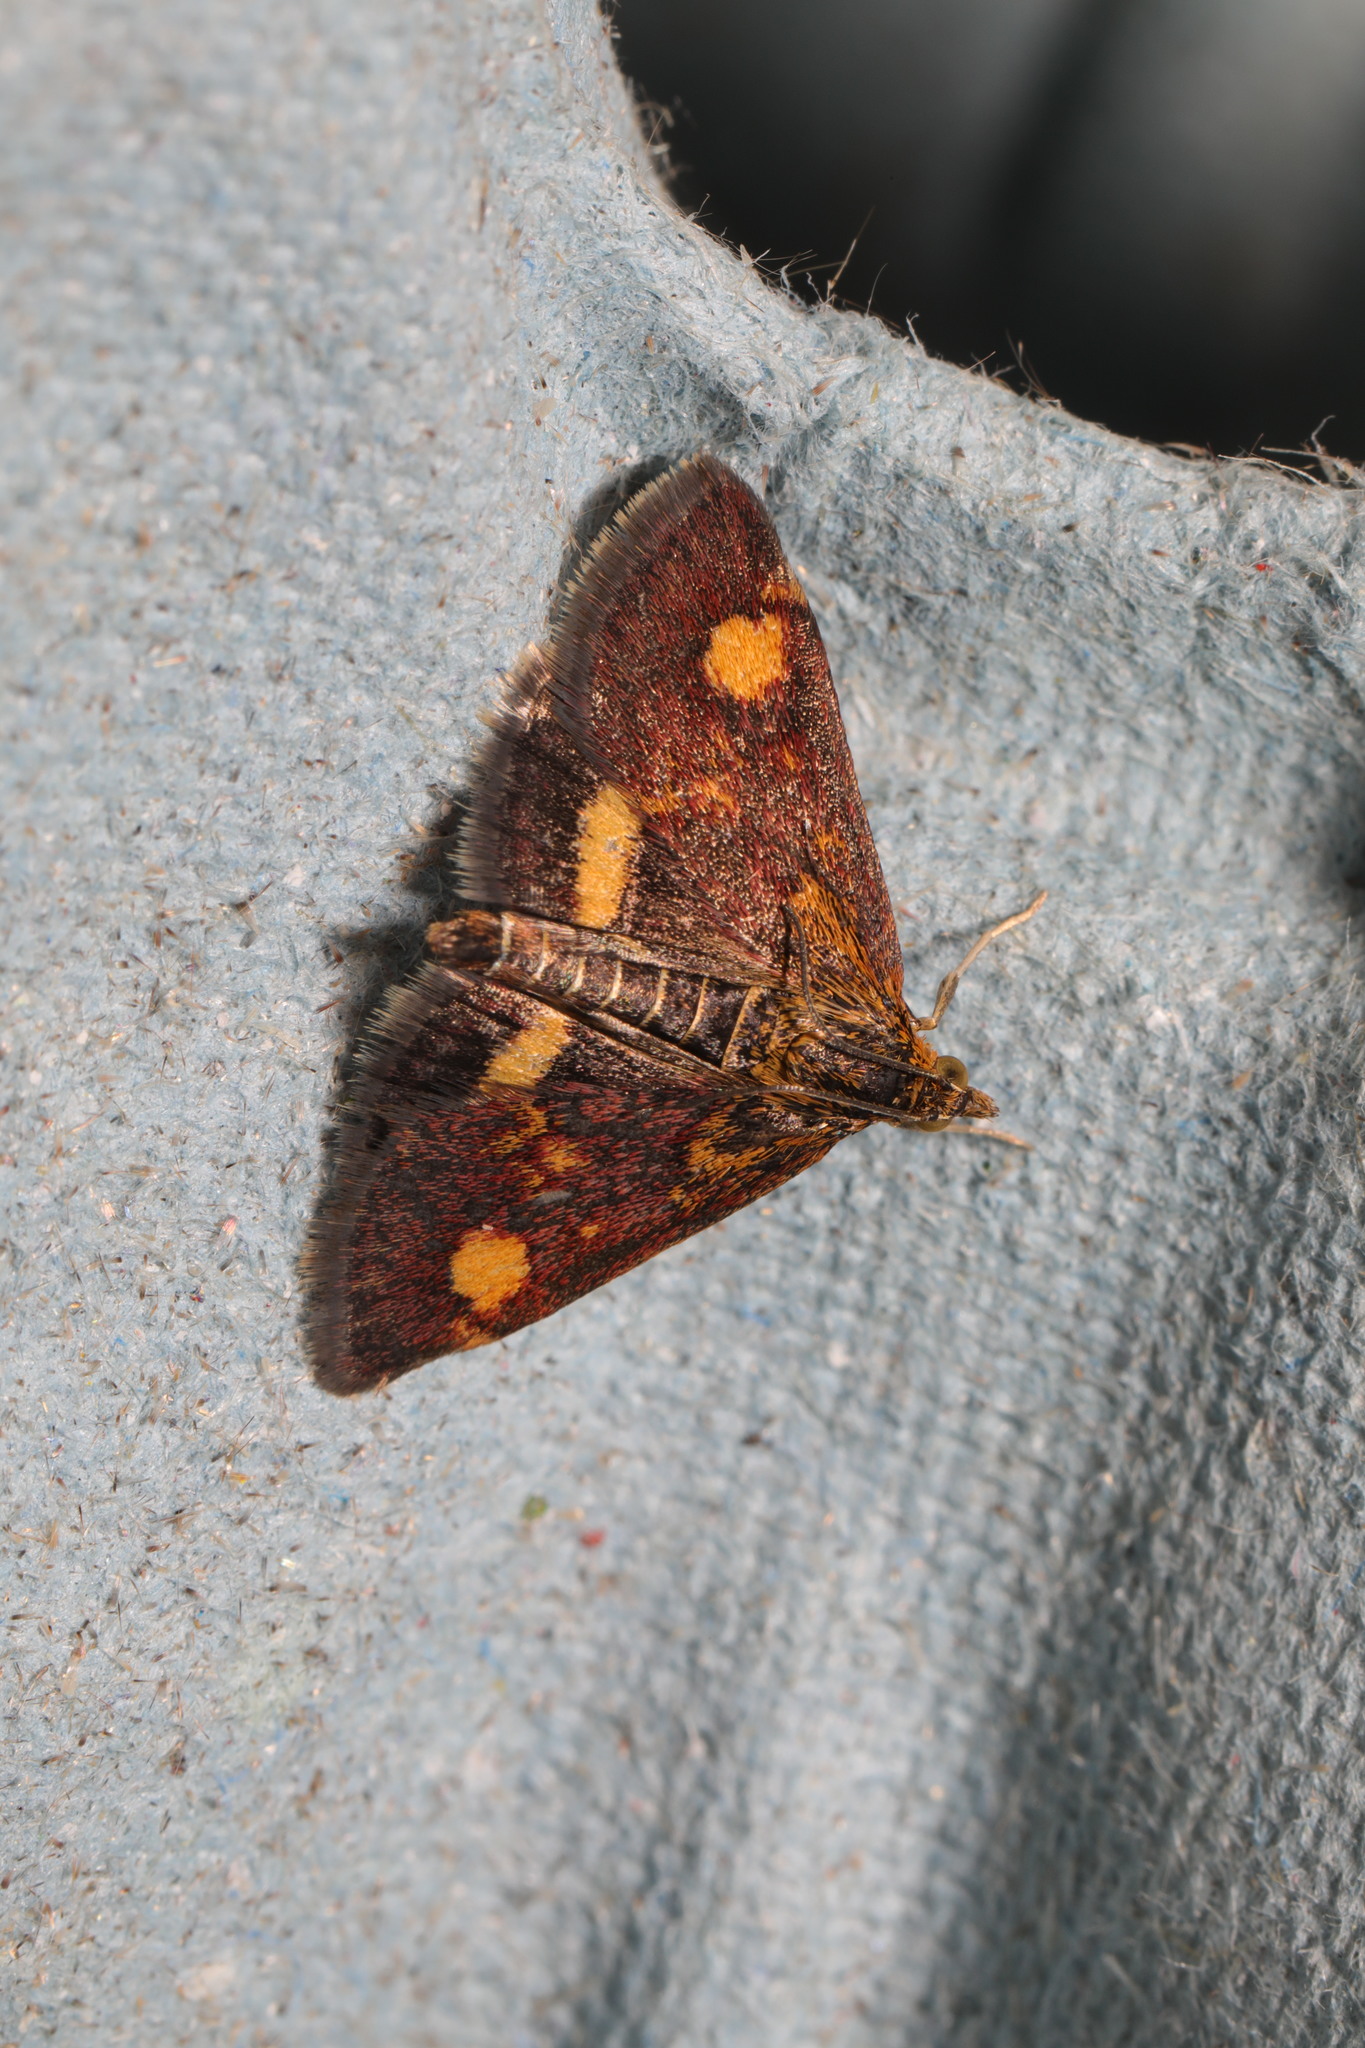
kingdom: Animalia
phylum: Arthropoda
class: Insecta
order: Lepidoptera
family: Crambidae
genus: Pyrausta
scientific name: Pyrausta aurata
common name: Small purple & gold
